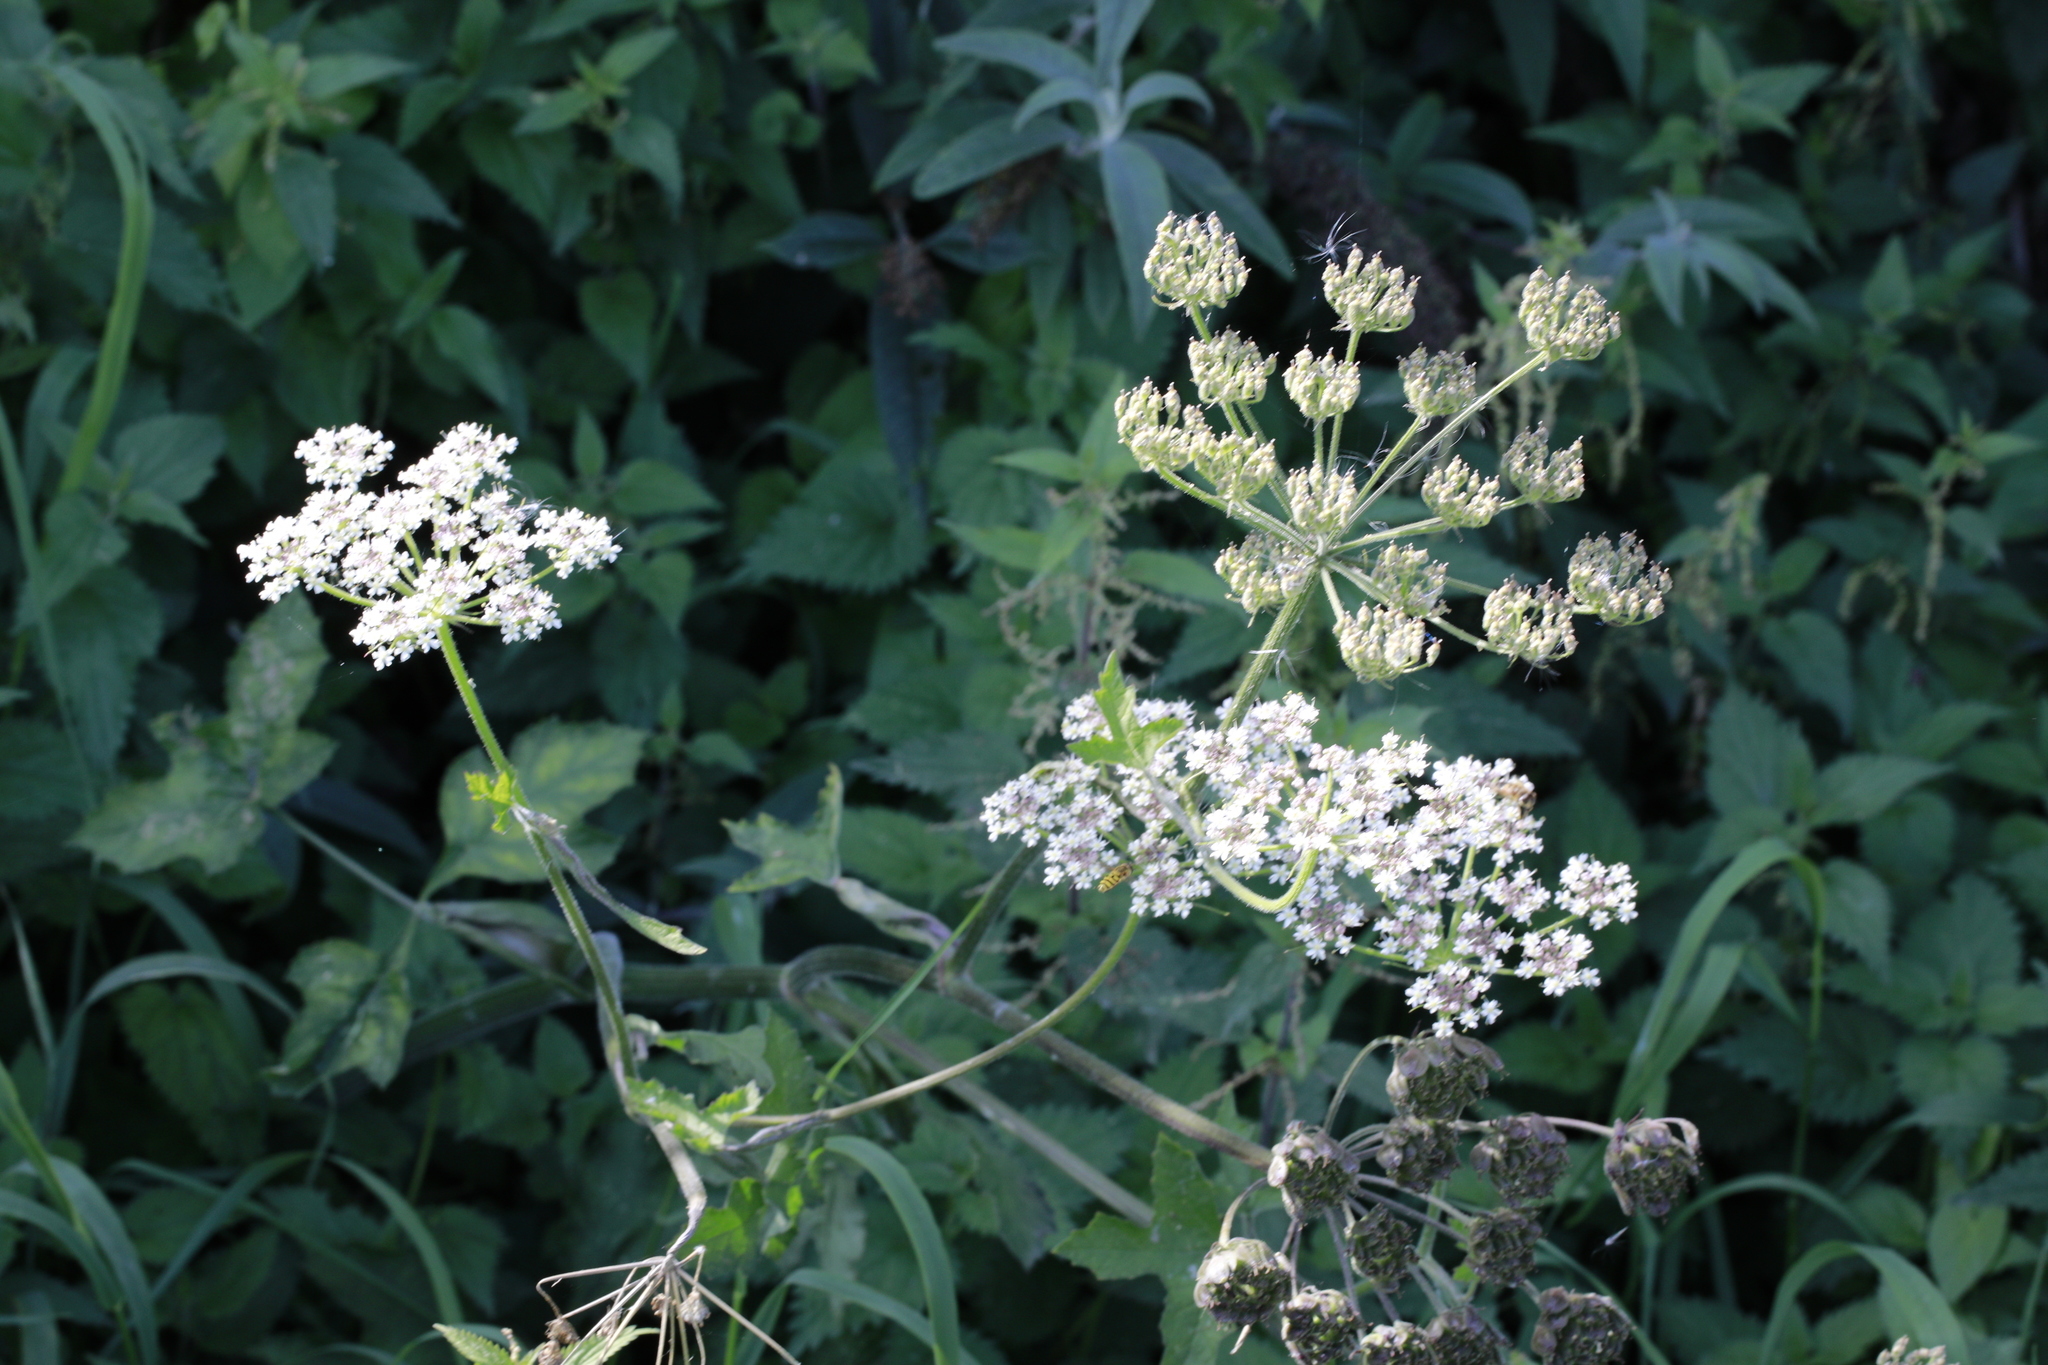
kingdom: Plantae
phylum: Tracheophyta
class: Magnoliopsida
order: Apiales
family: Apiaceae
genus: Heracleum
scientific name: Heracleum sphondylium
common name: Hogweed
